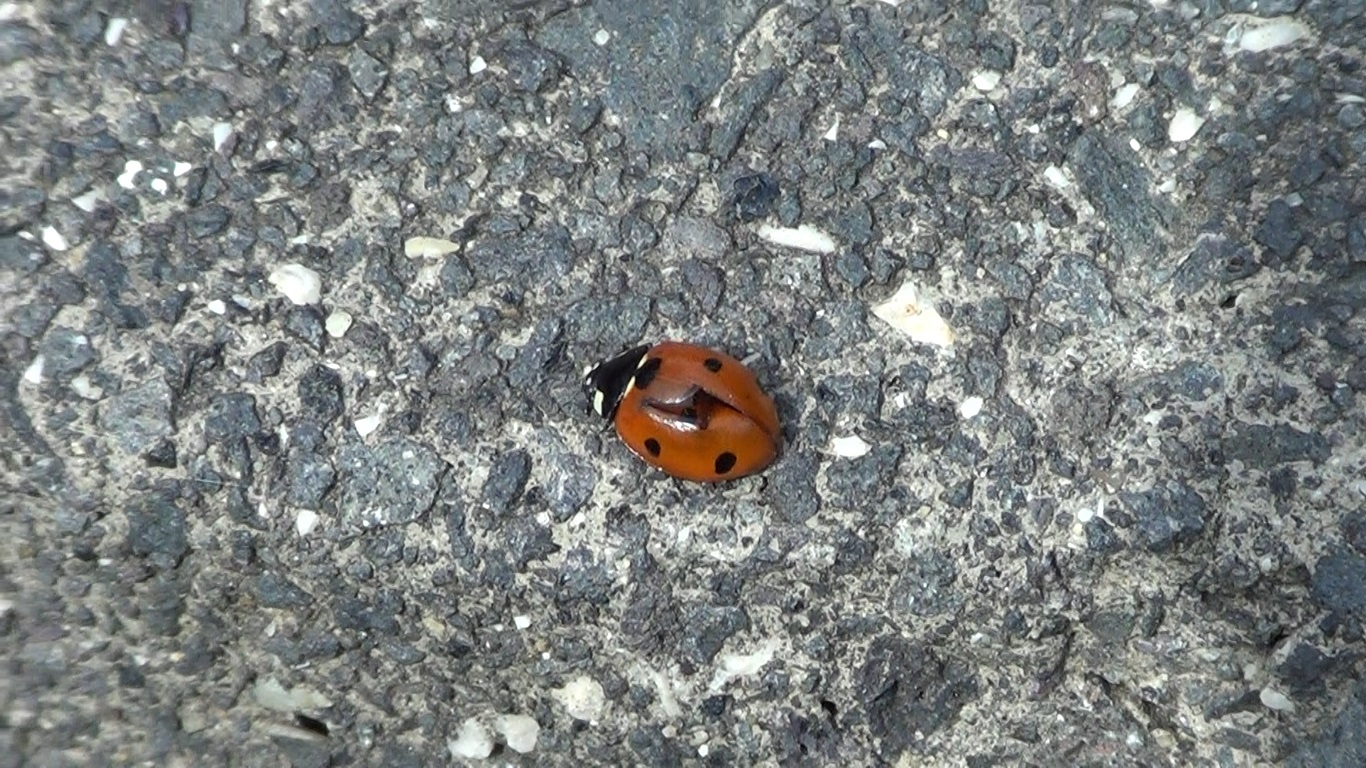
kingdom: Animalia
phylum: Arthropoda
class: Insecta
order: Coleoptera
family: Coccinellidae
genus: Coccinella
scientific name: Coccinella septempunctata
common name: Sevenspotted lady beetle
